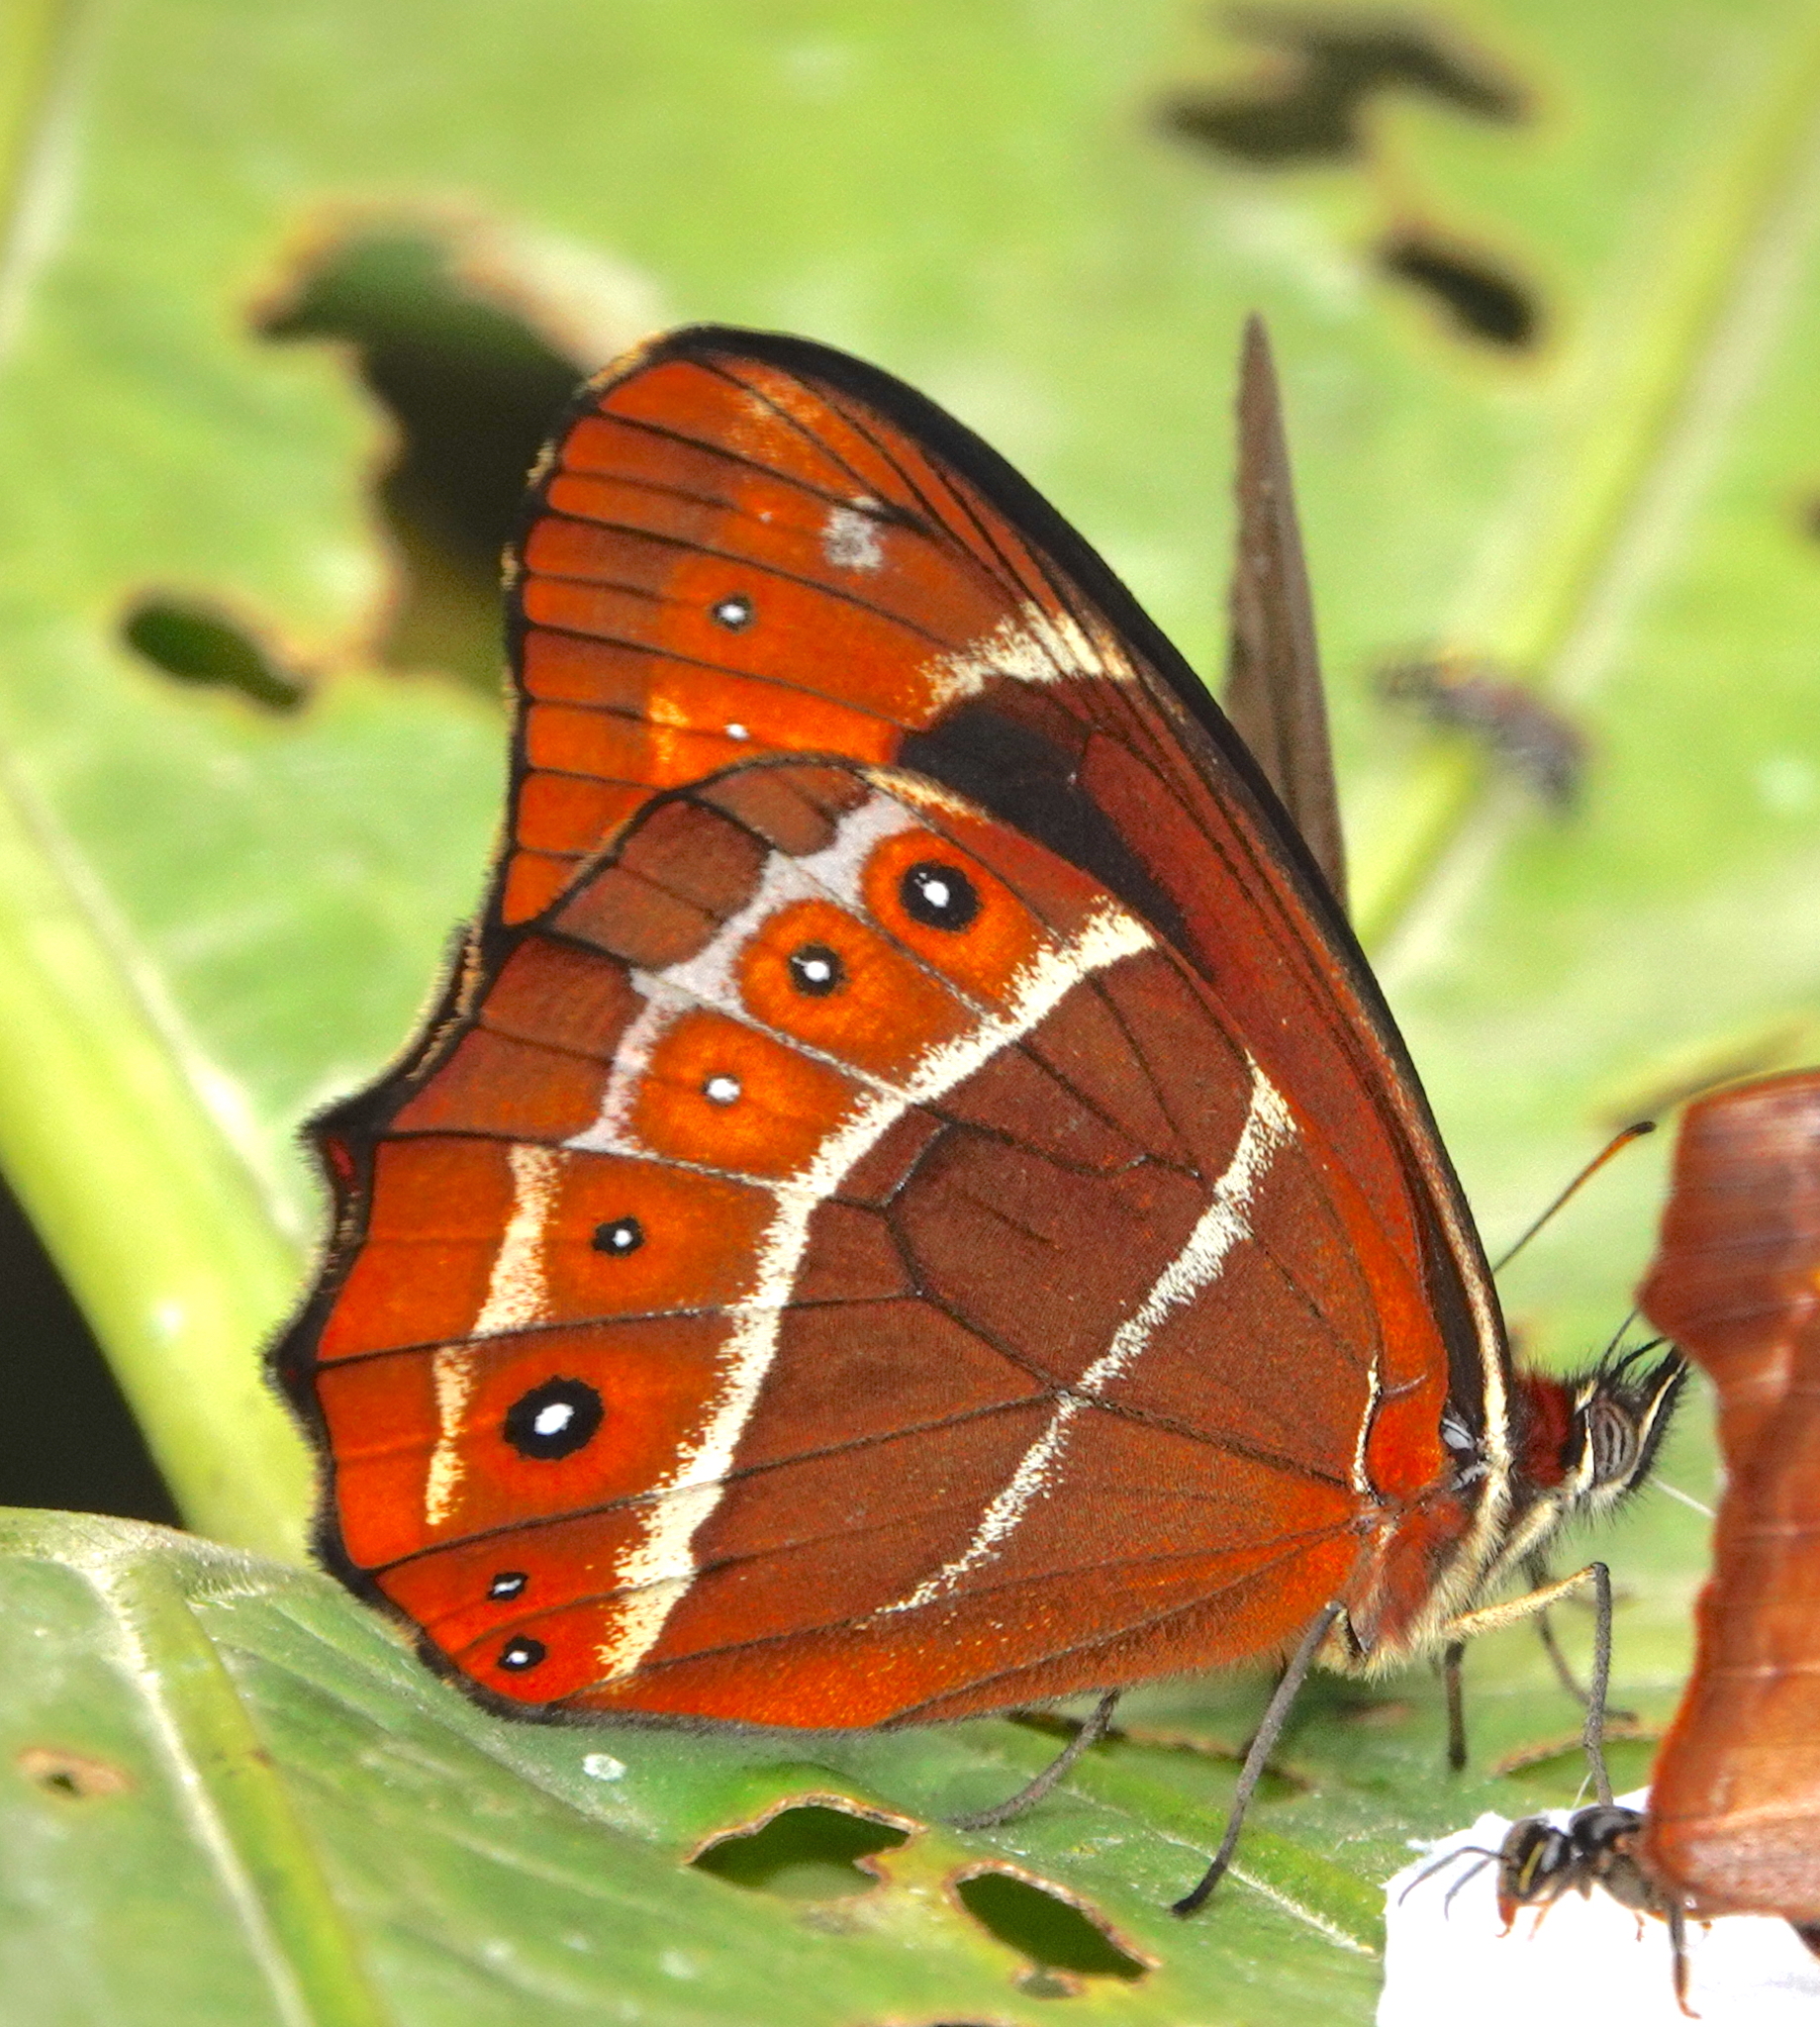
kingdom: Animalia
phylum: Arthropoda
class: Insecta
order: Lepidoptera
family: Nymphalidae
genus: Oxeoschistus
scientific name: Oxeoschistus puerta
